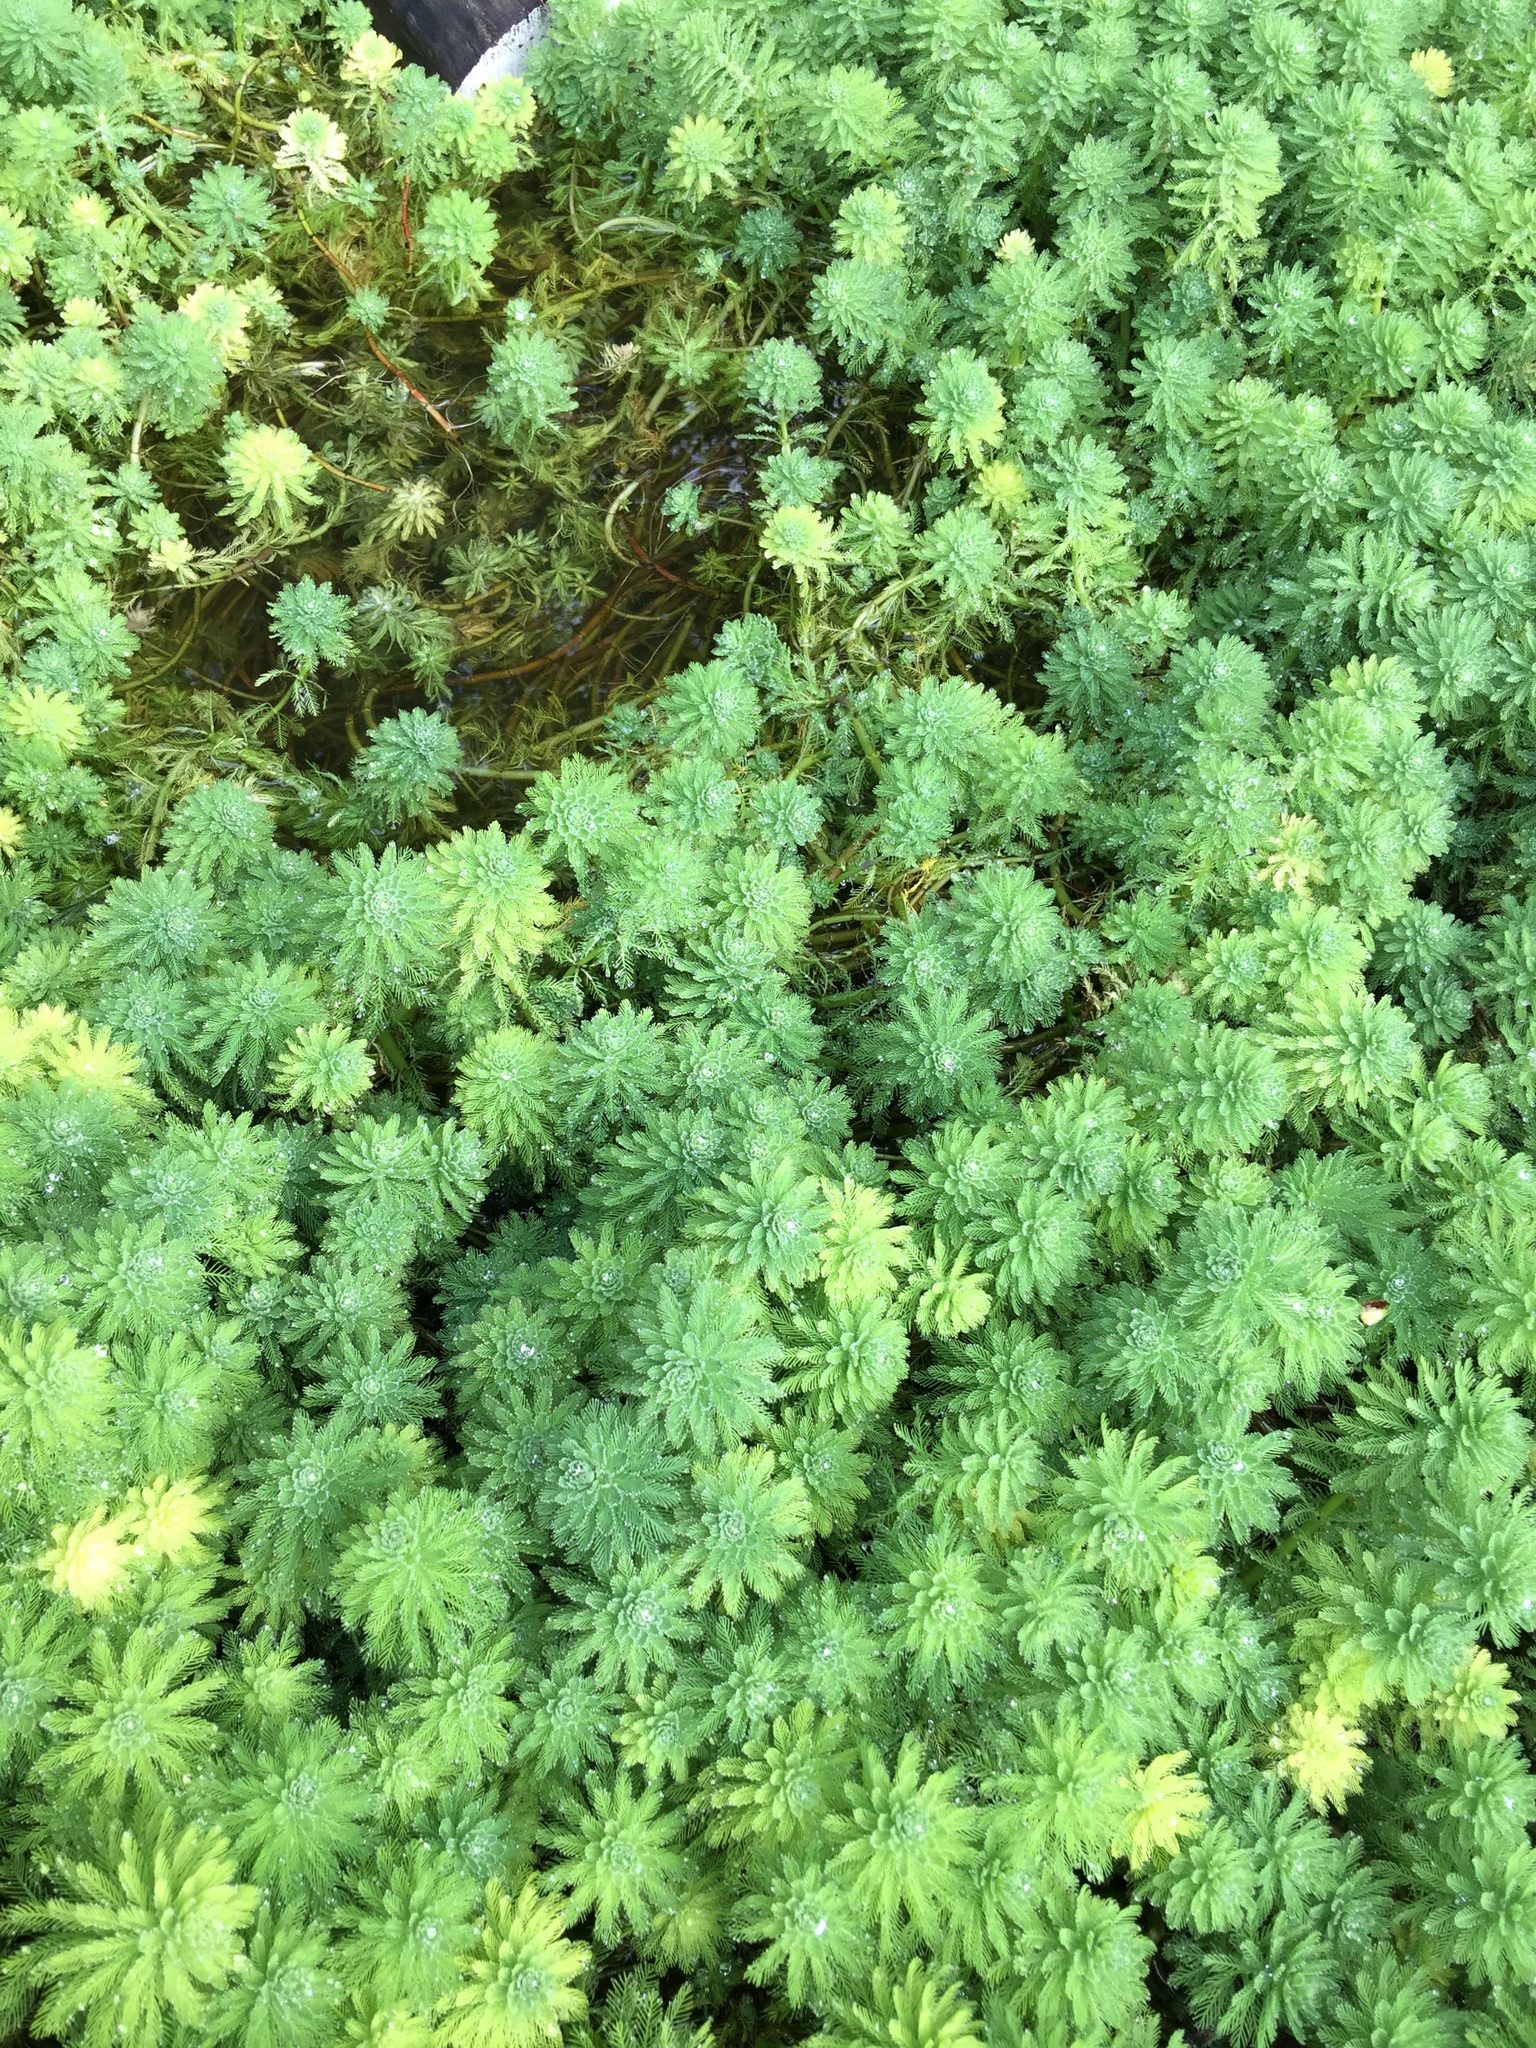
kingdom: Plantae
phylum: Tracheophyta
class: Magnoliopsida
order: Saxifragales
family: Haloragaceae
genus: Myriophyllum
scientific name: Myriophyllum aquaticum
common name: Parrot's feather
